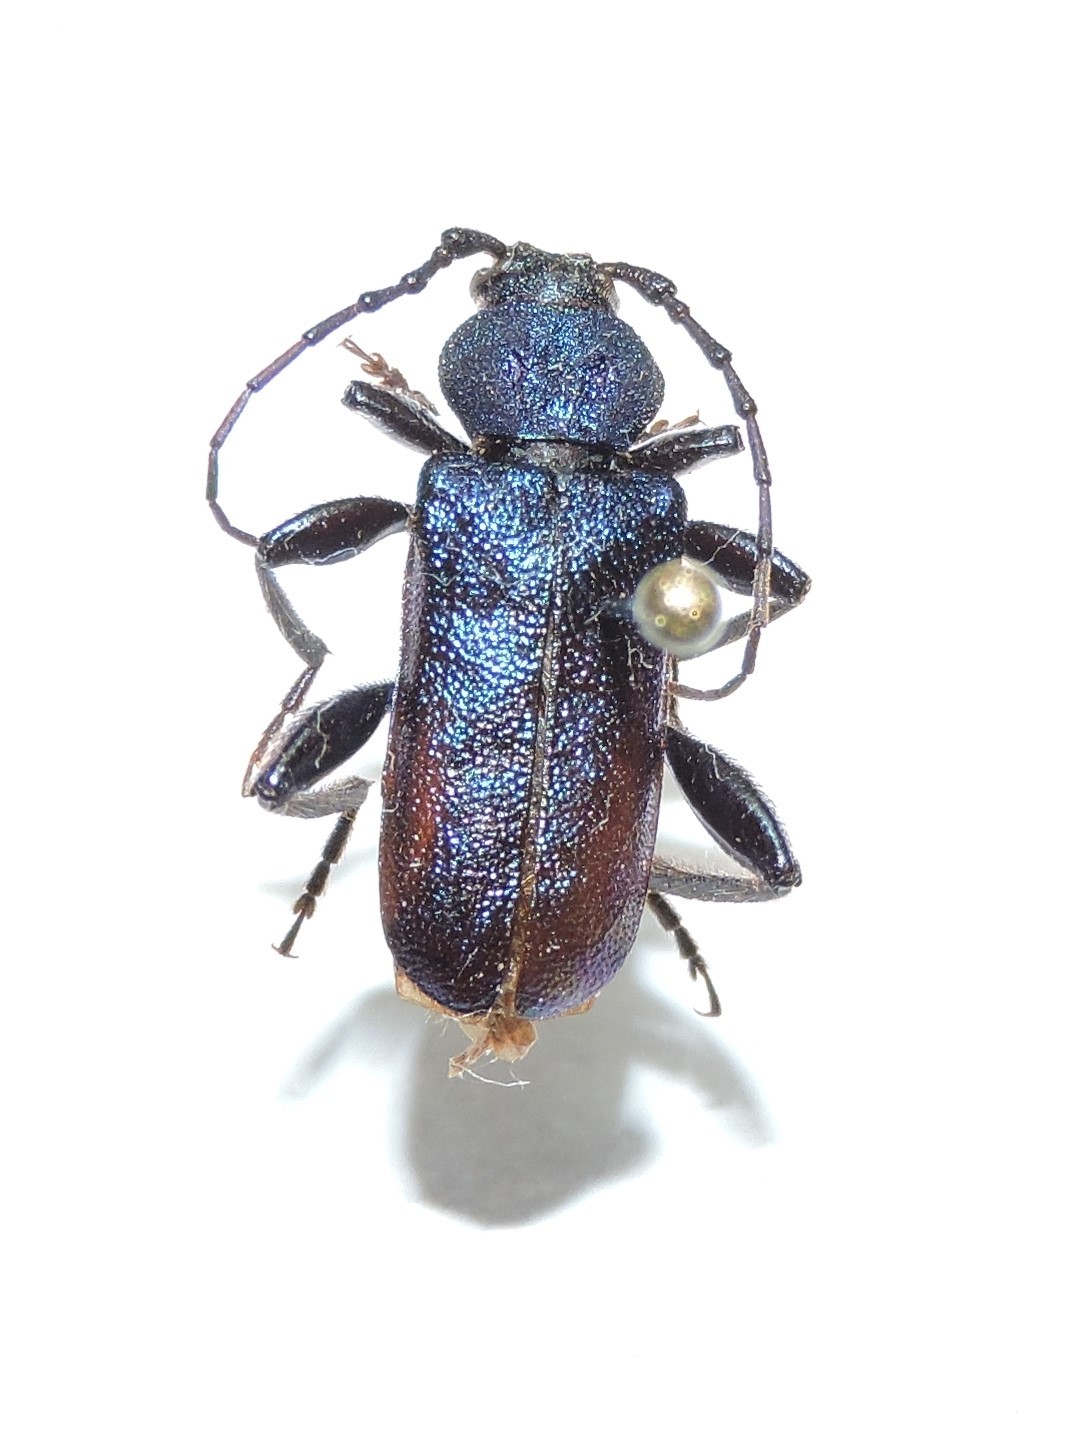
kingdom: Animalia
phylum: Arthropoda
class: Insecta
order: Coleoptera
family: Cerambycidae
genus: Callidium
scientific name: Callidium violaceum
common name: Violet tanbark beetle
